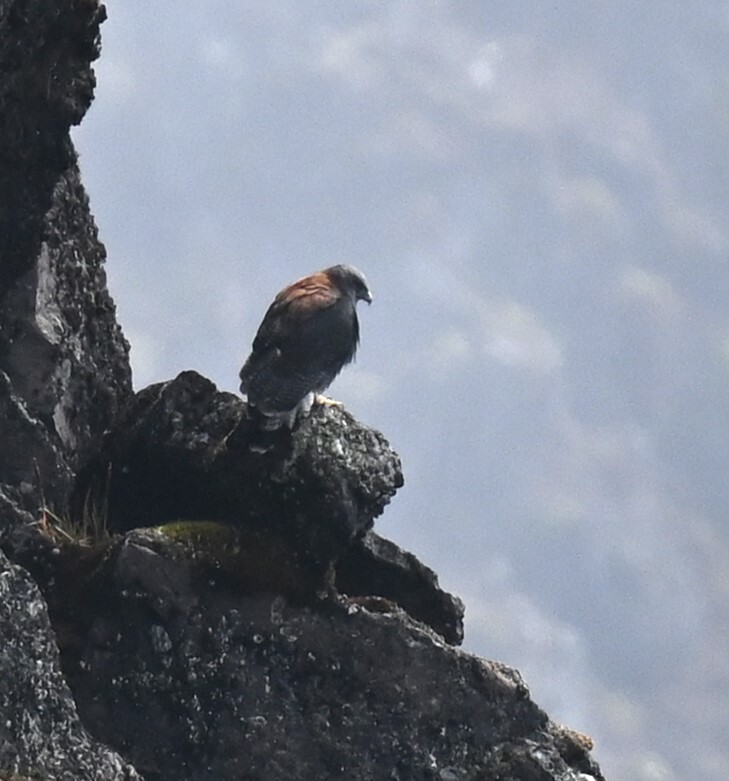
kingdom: Animalia
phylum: Chordata
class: Aves
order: Accipitriformes
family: Accipitridae
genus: Buteo
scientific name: Buteo polyosoma
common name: Variable hawk
